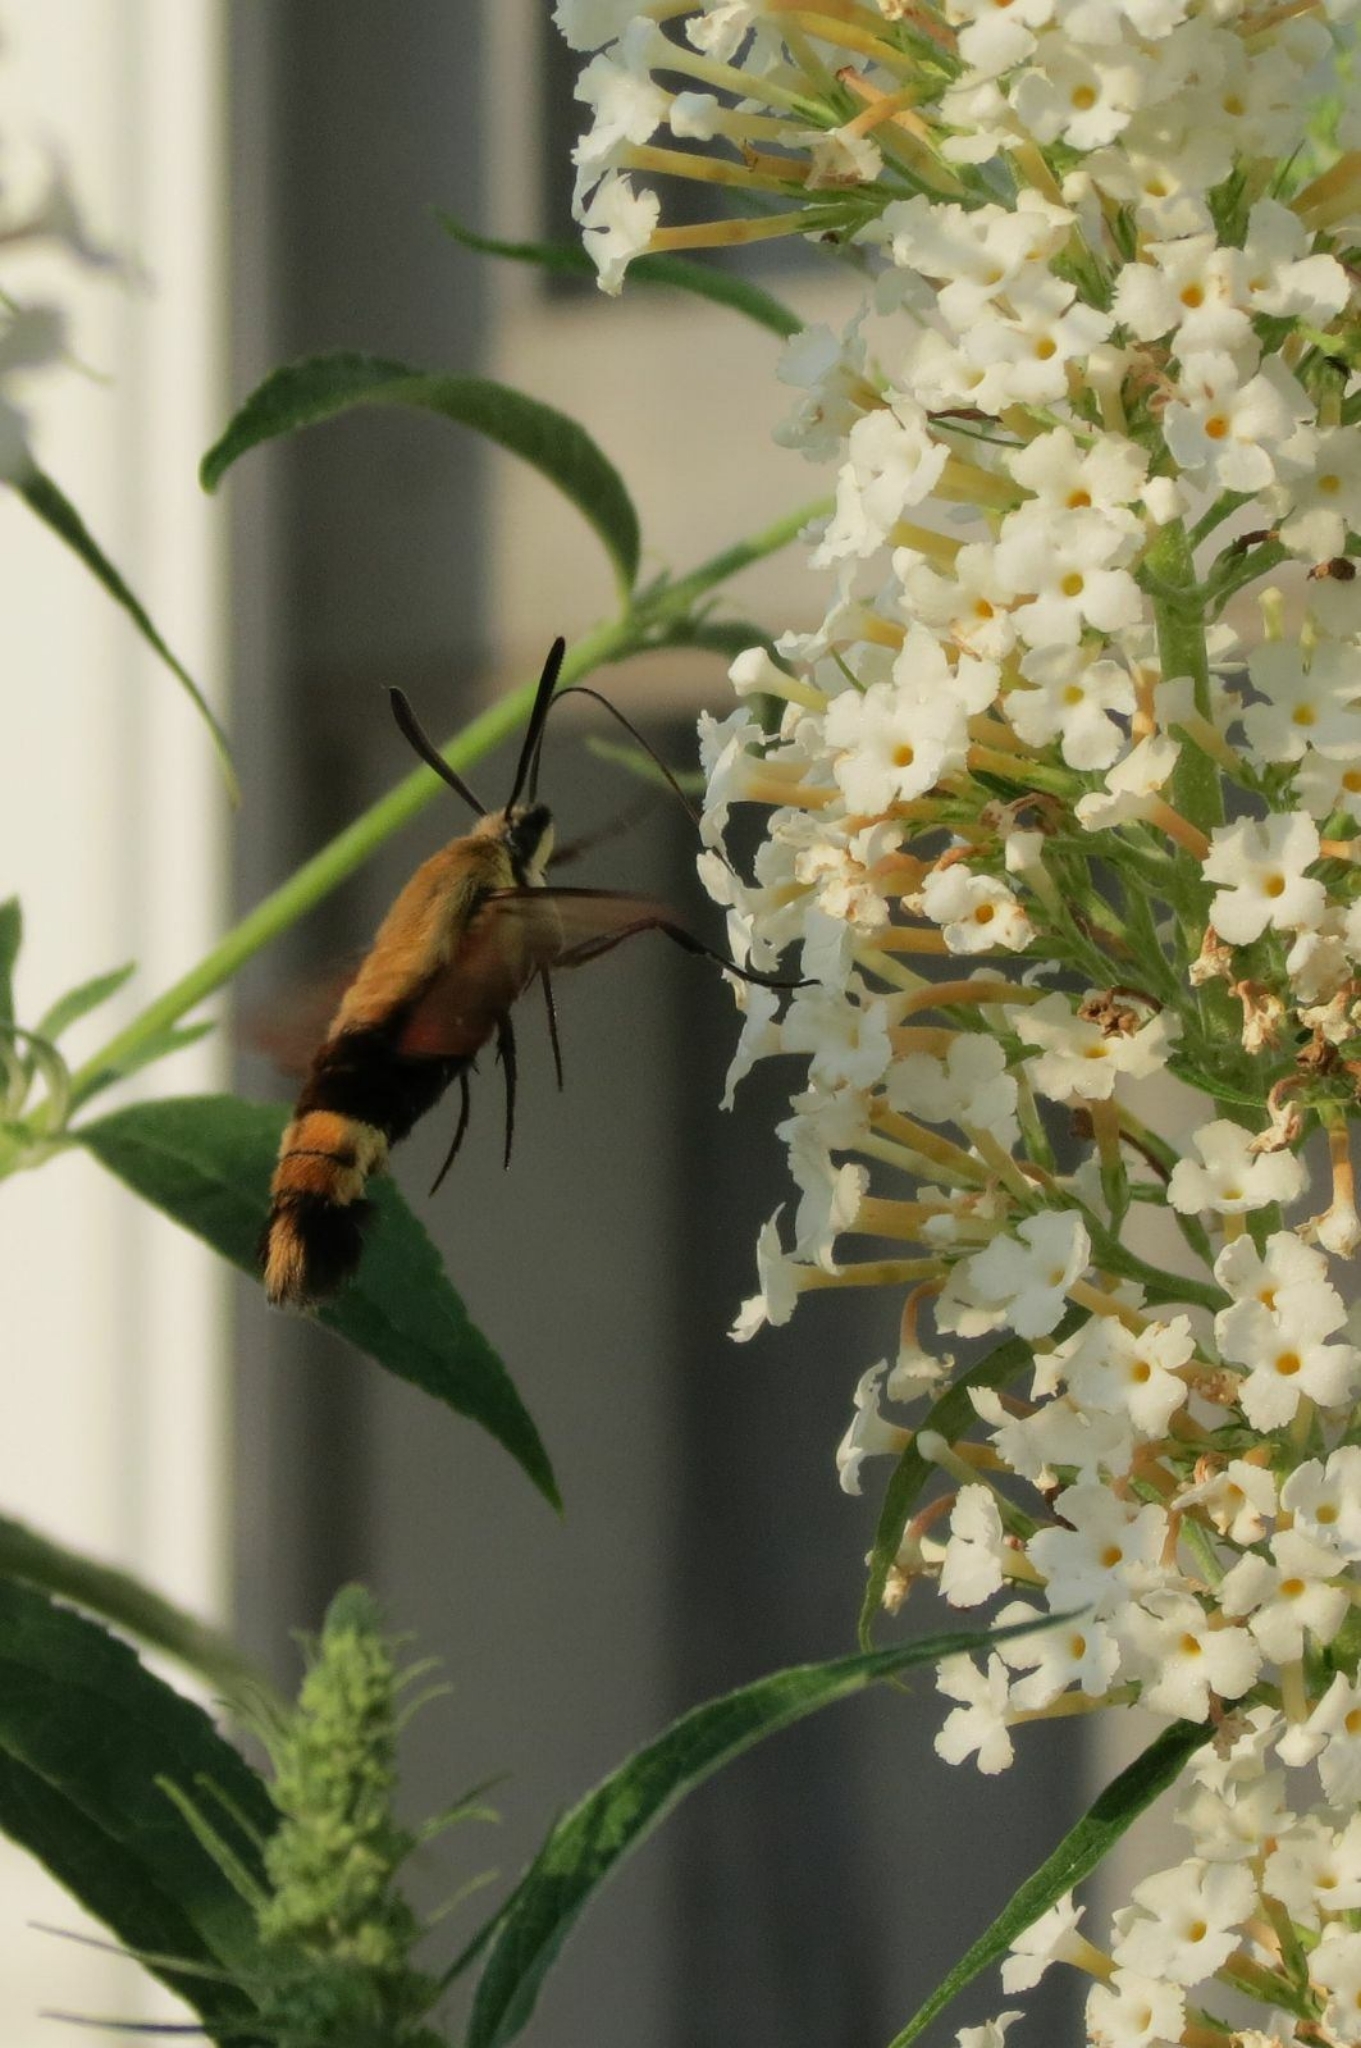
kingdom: Animalia
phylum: Arthropoda
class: Insecta
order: Lepidoptera
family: Sphingidae
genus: Hemaris
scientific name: Hemaris diffinis
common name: Bumblebee moth
